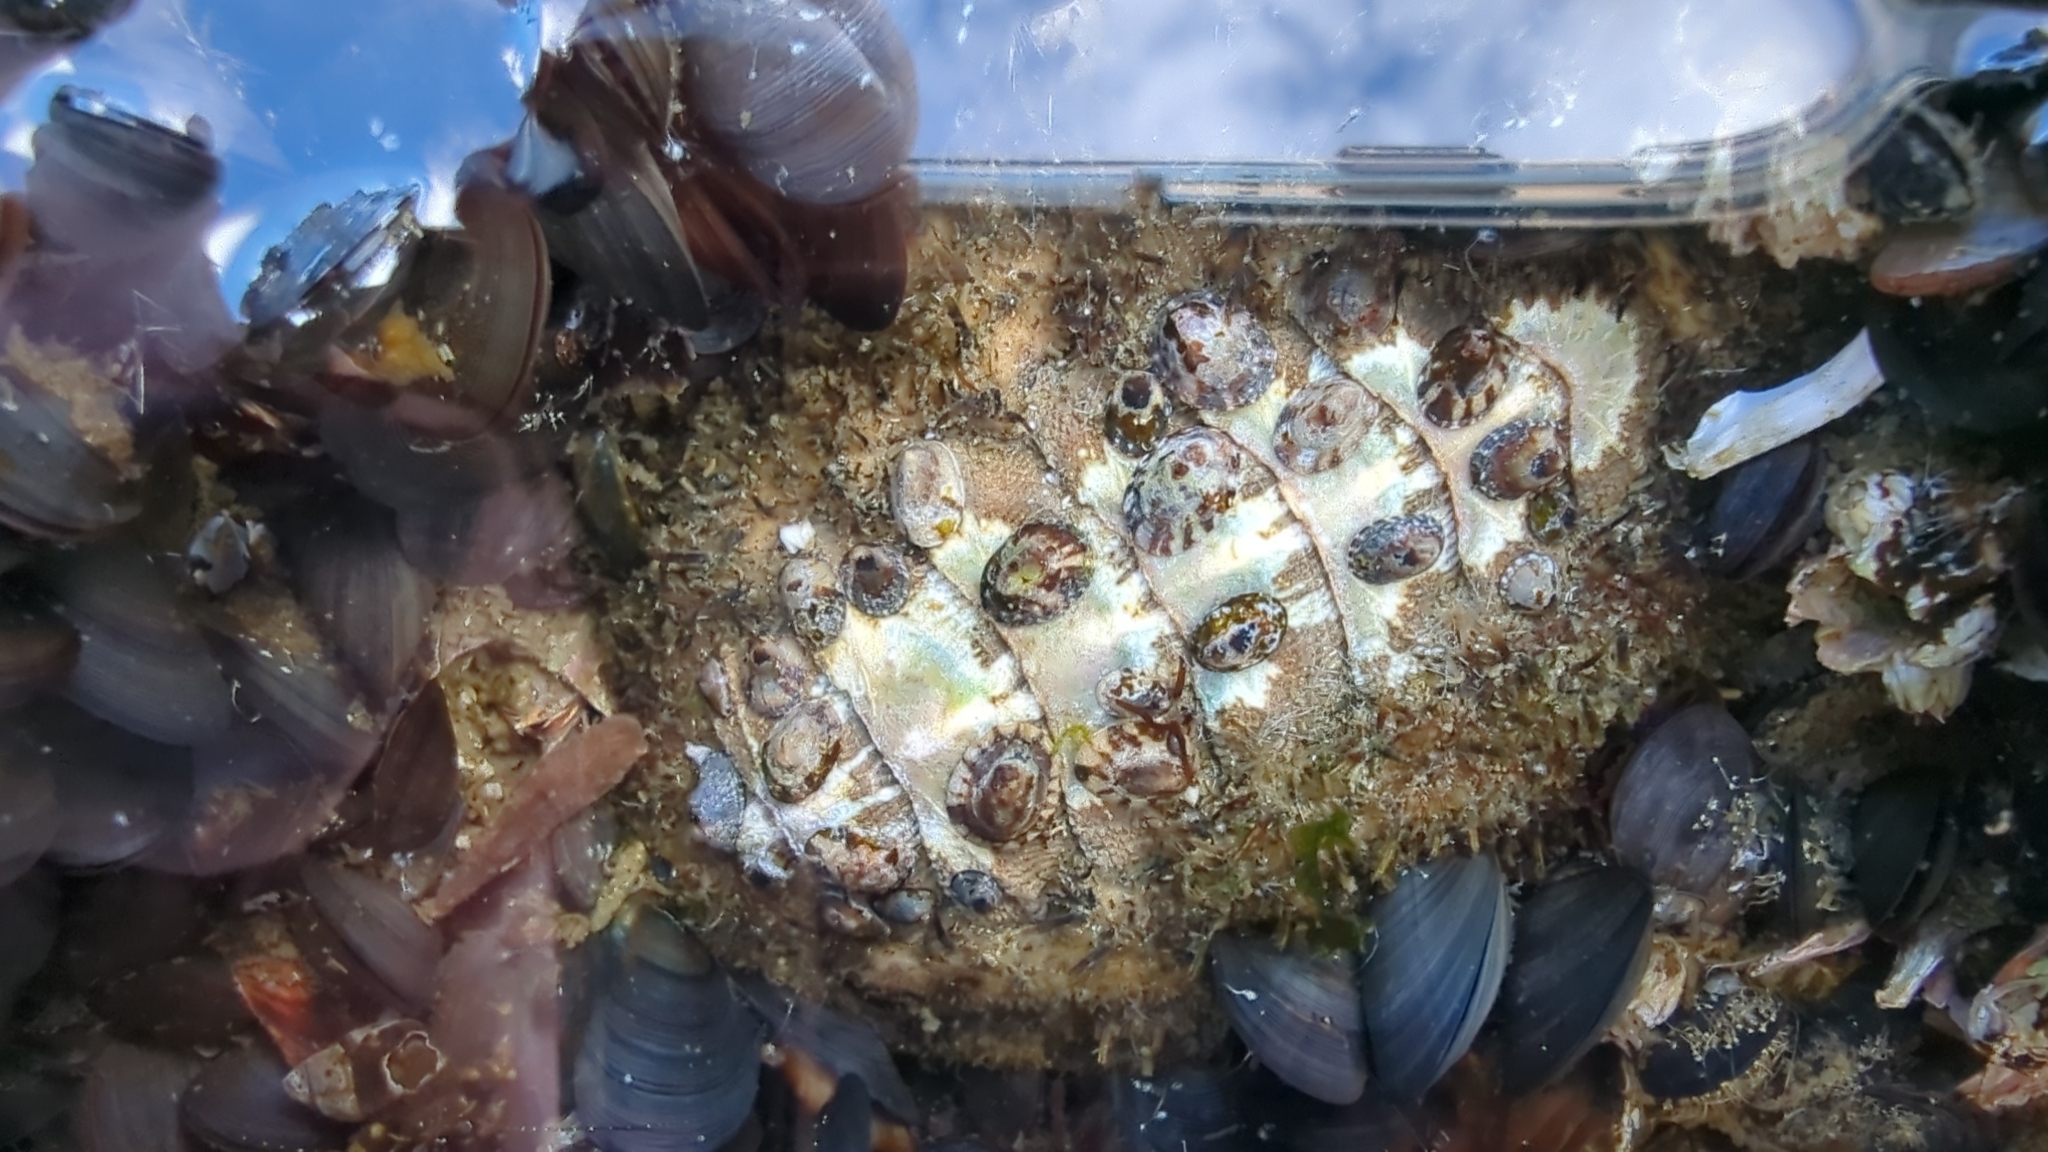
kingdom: Animalia
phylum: Mollusca
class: Polyplacophora
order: Chitonida
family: Mopaliidae
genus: Mopalia
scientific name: Mopalia muscosa
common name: Mossy chiton
